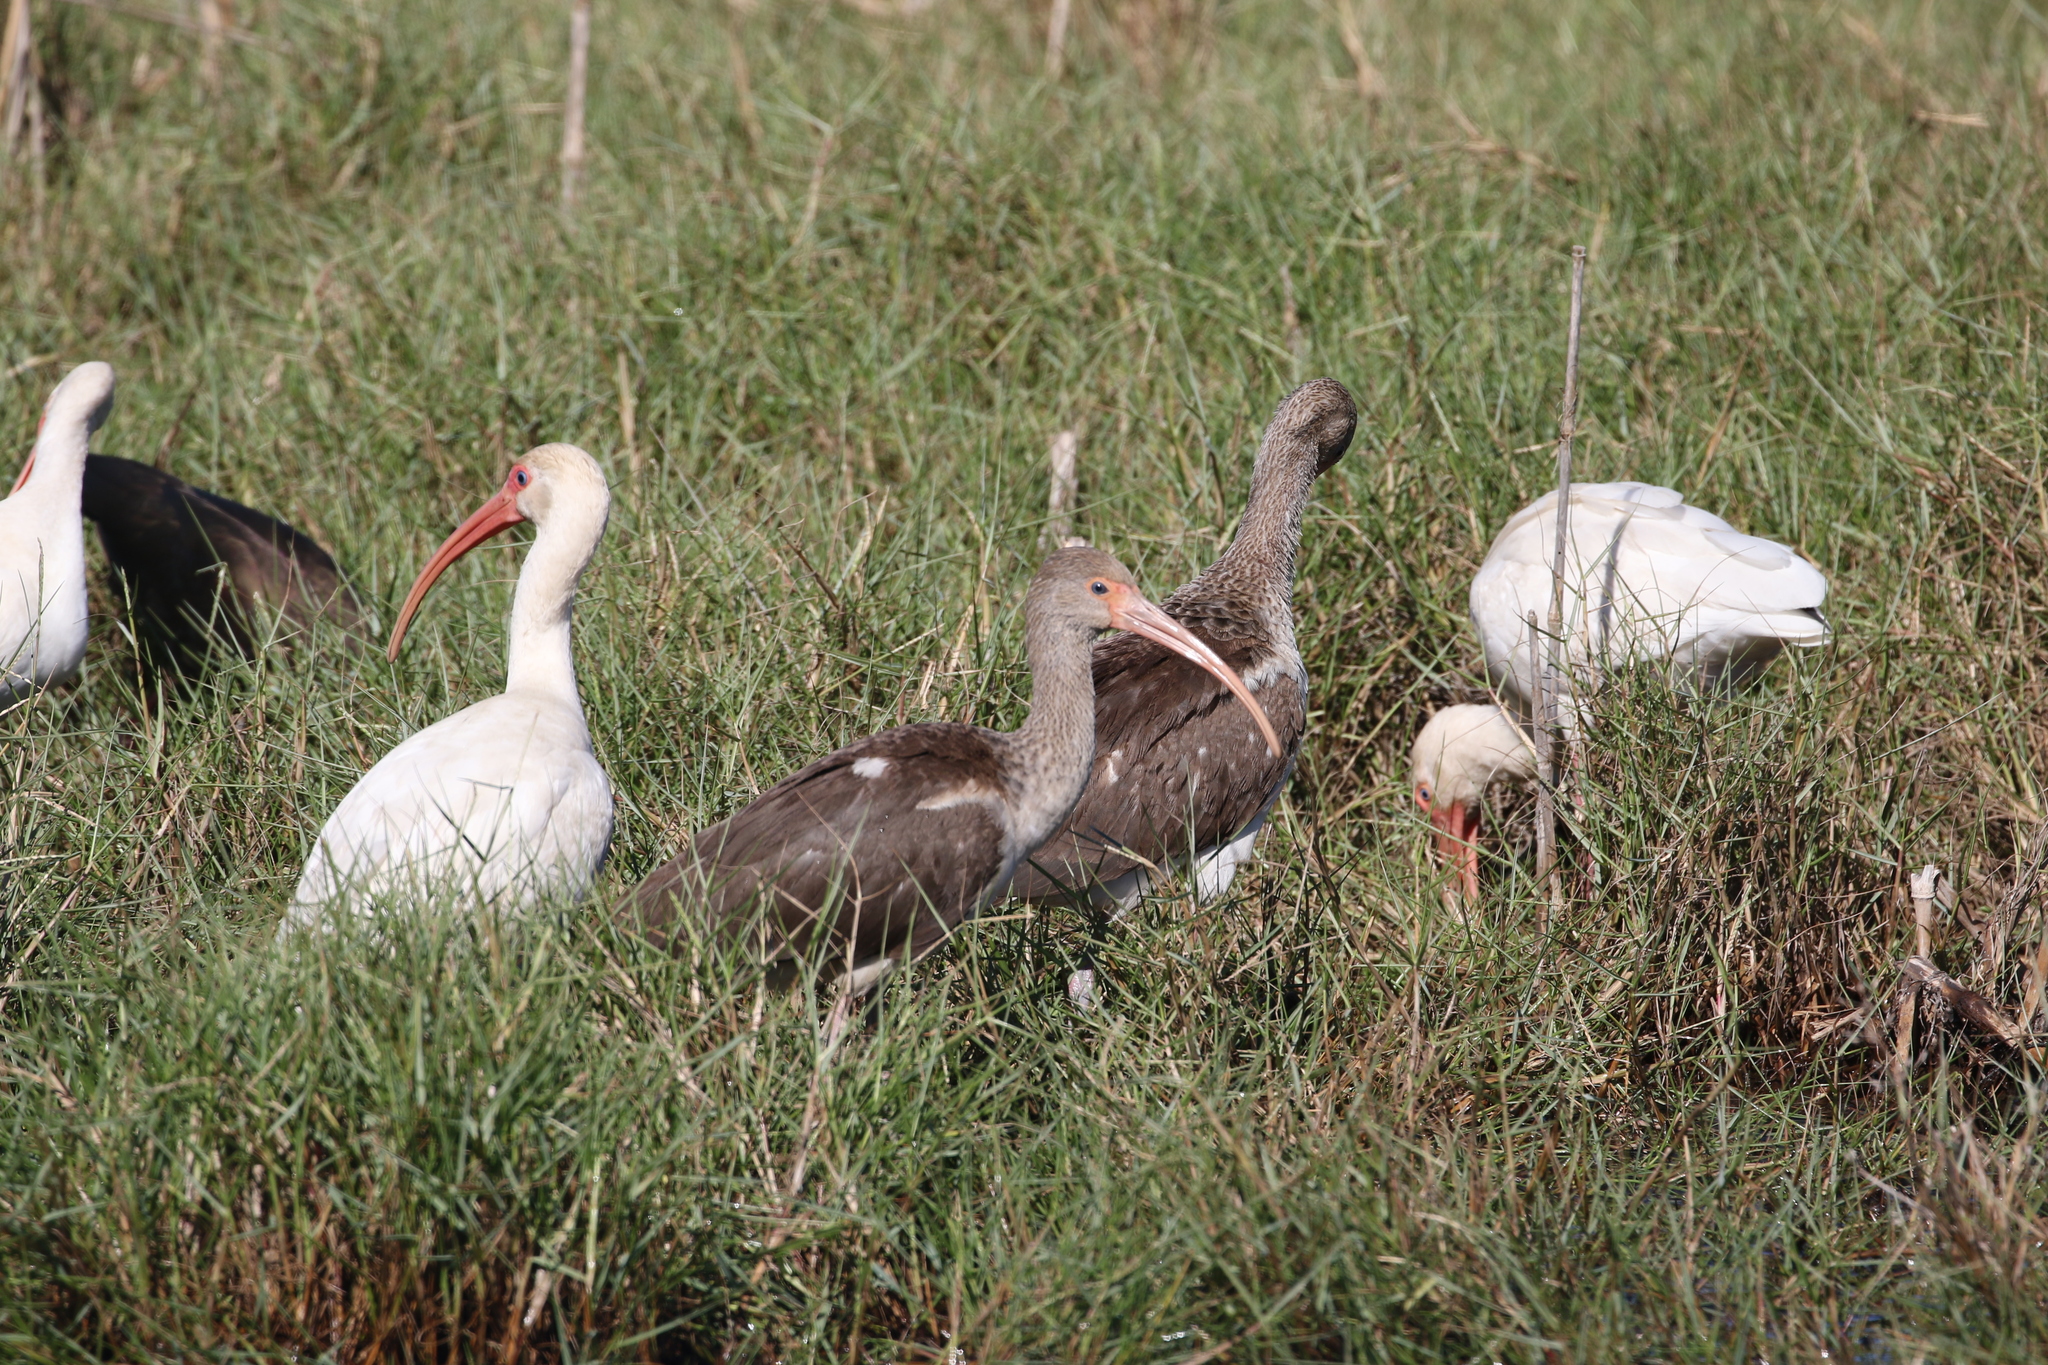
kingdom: Animalia
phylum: Chordata
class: Aves
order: Pelecaniformes
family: Threskiornithidae
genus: Eudocimus
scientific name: Eudocimus albus
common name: White ibis
